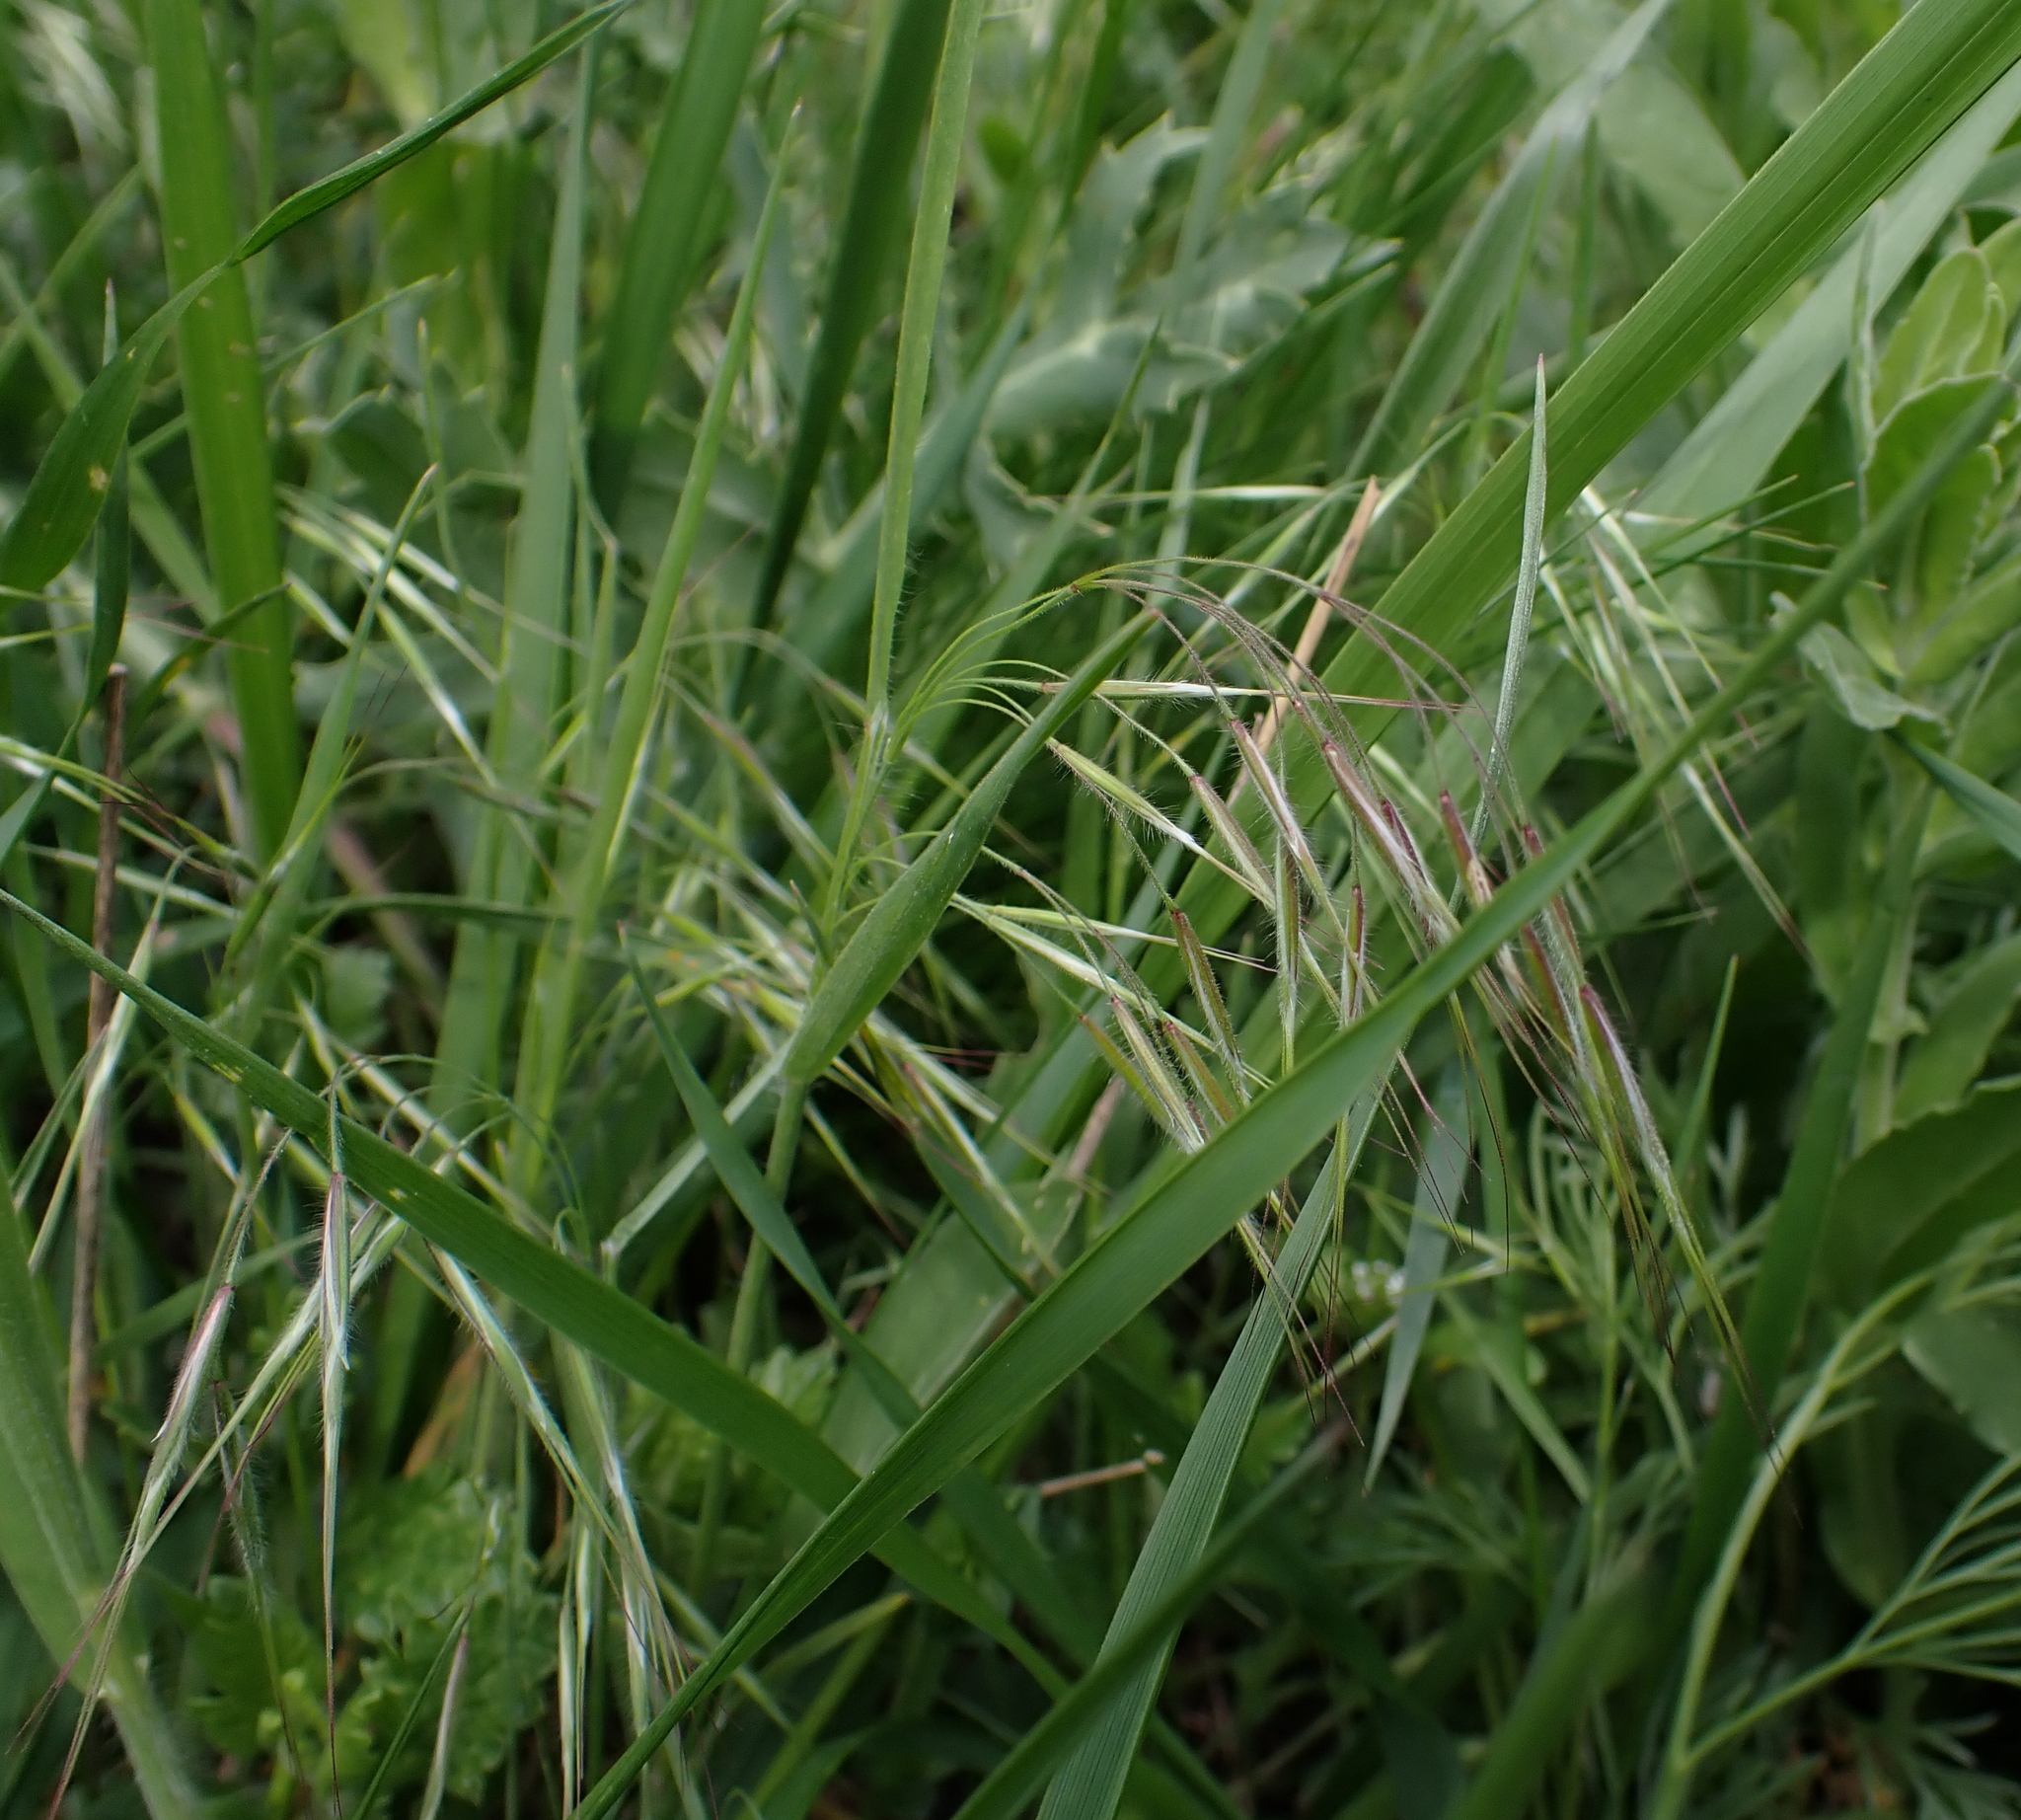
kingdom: Plantae
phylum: Tracheophyta
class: Liliopsida
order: Poales
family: Poaceae
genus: Bromus
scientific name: Bromus tectorum
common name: Cheatgrass
